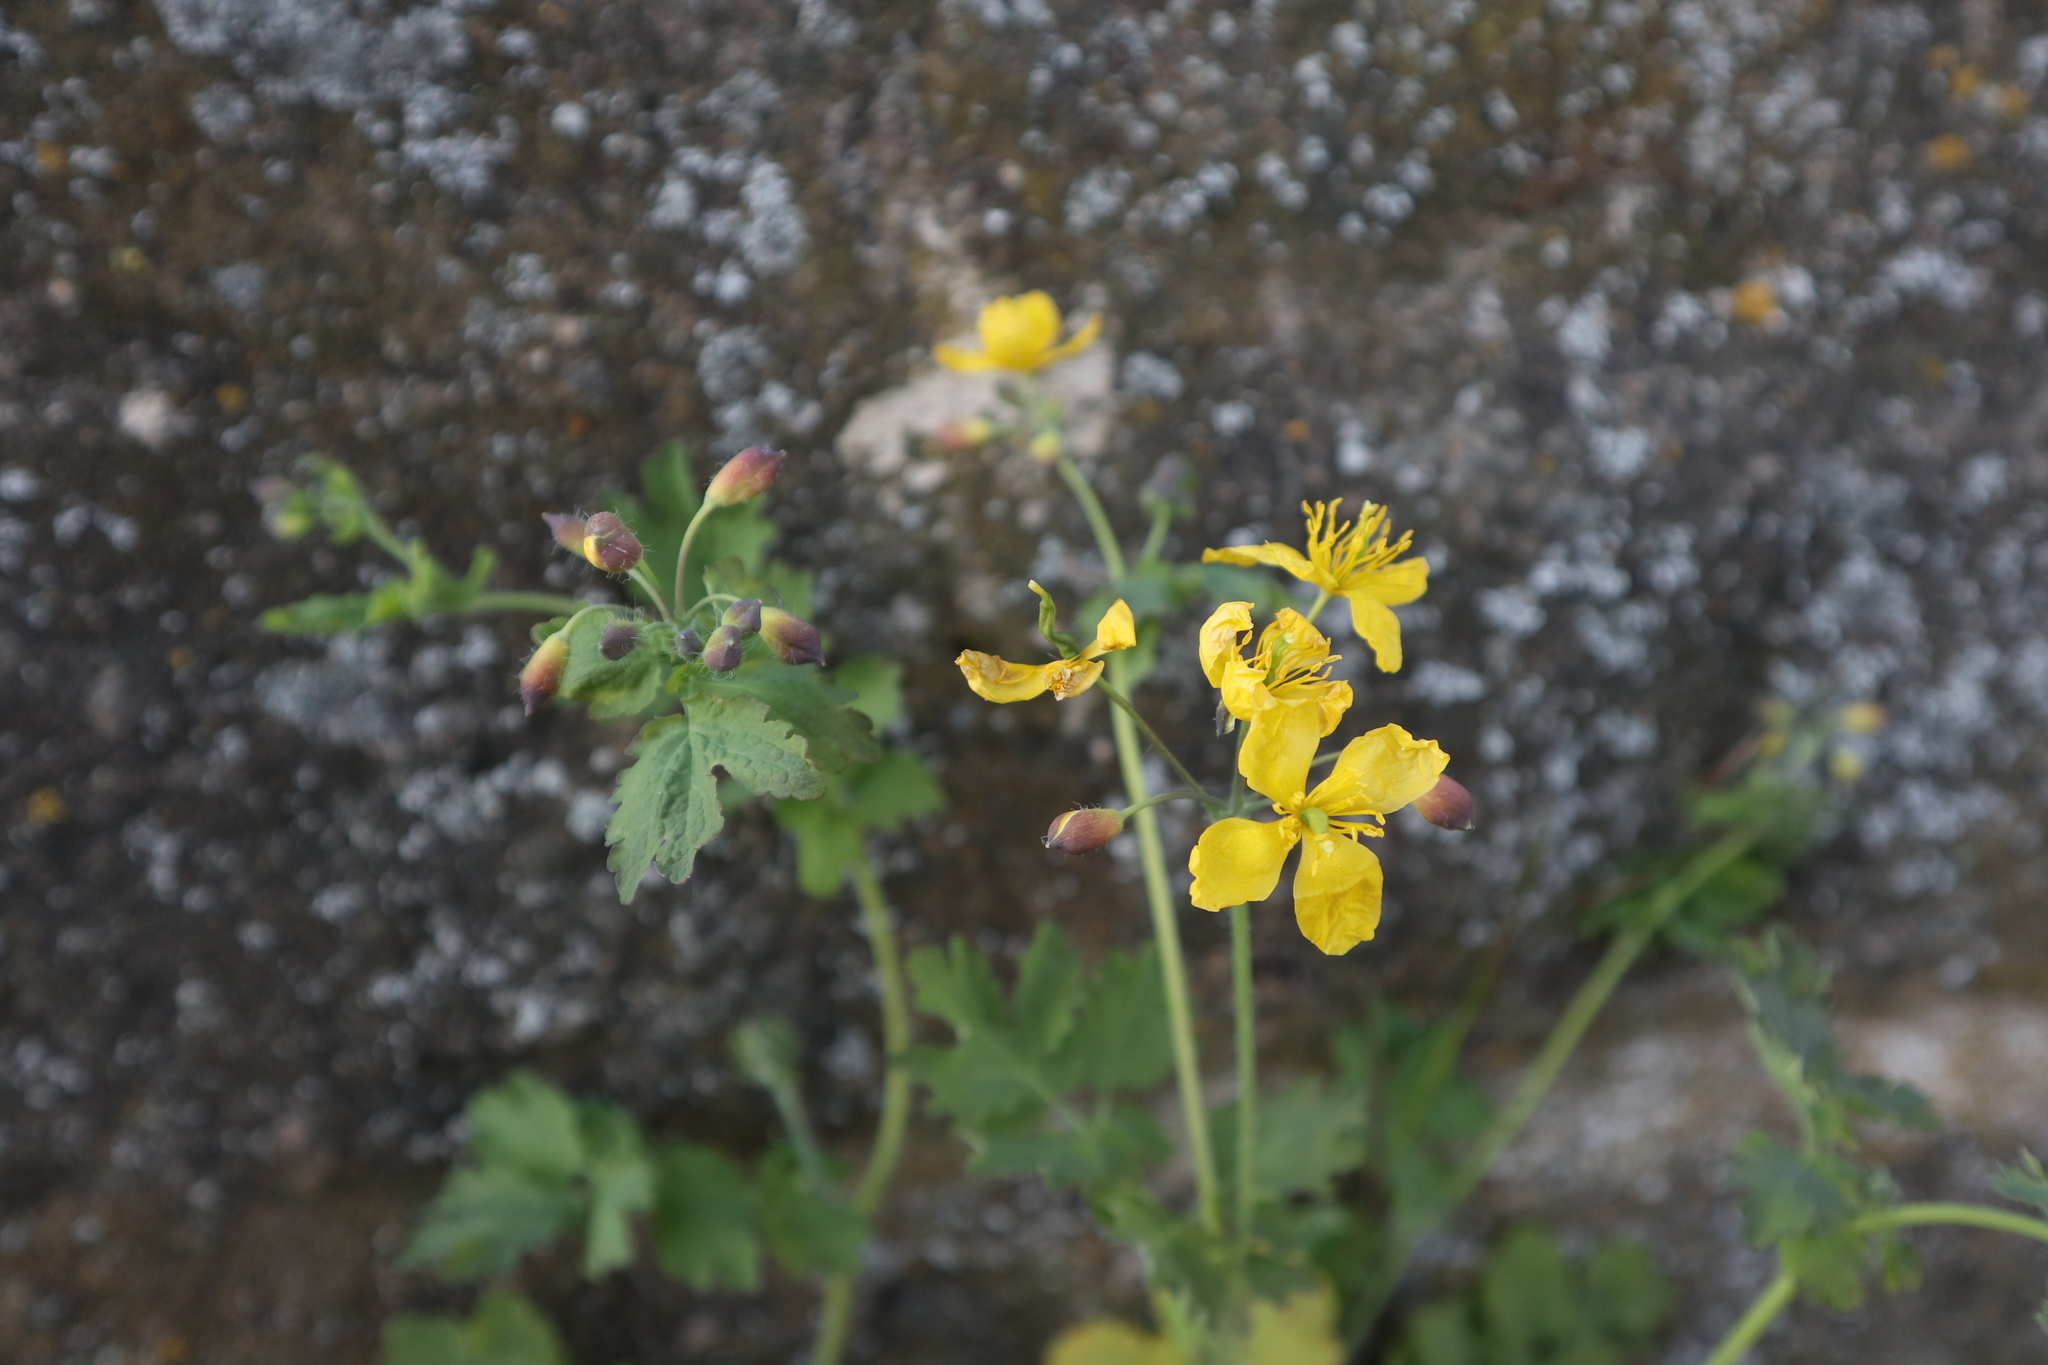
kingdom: Plantae
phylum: Tracheophyta
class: Magnoliopsida
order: Ranunculales
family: Papaveraceae
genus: Chelidonium
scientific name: Chelidonium majus
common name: Greater celandine
